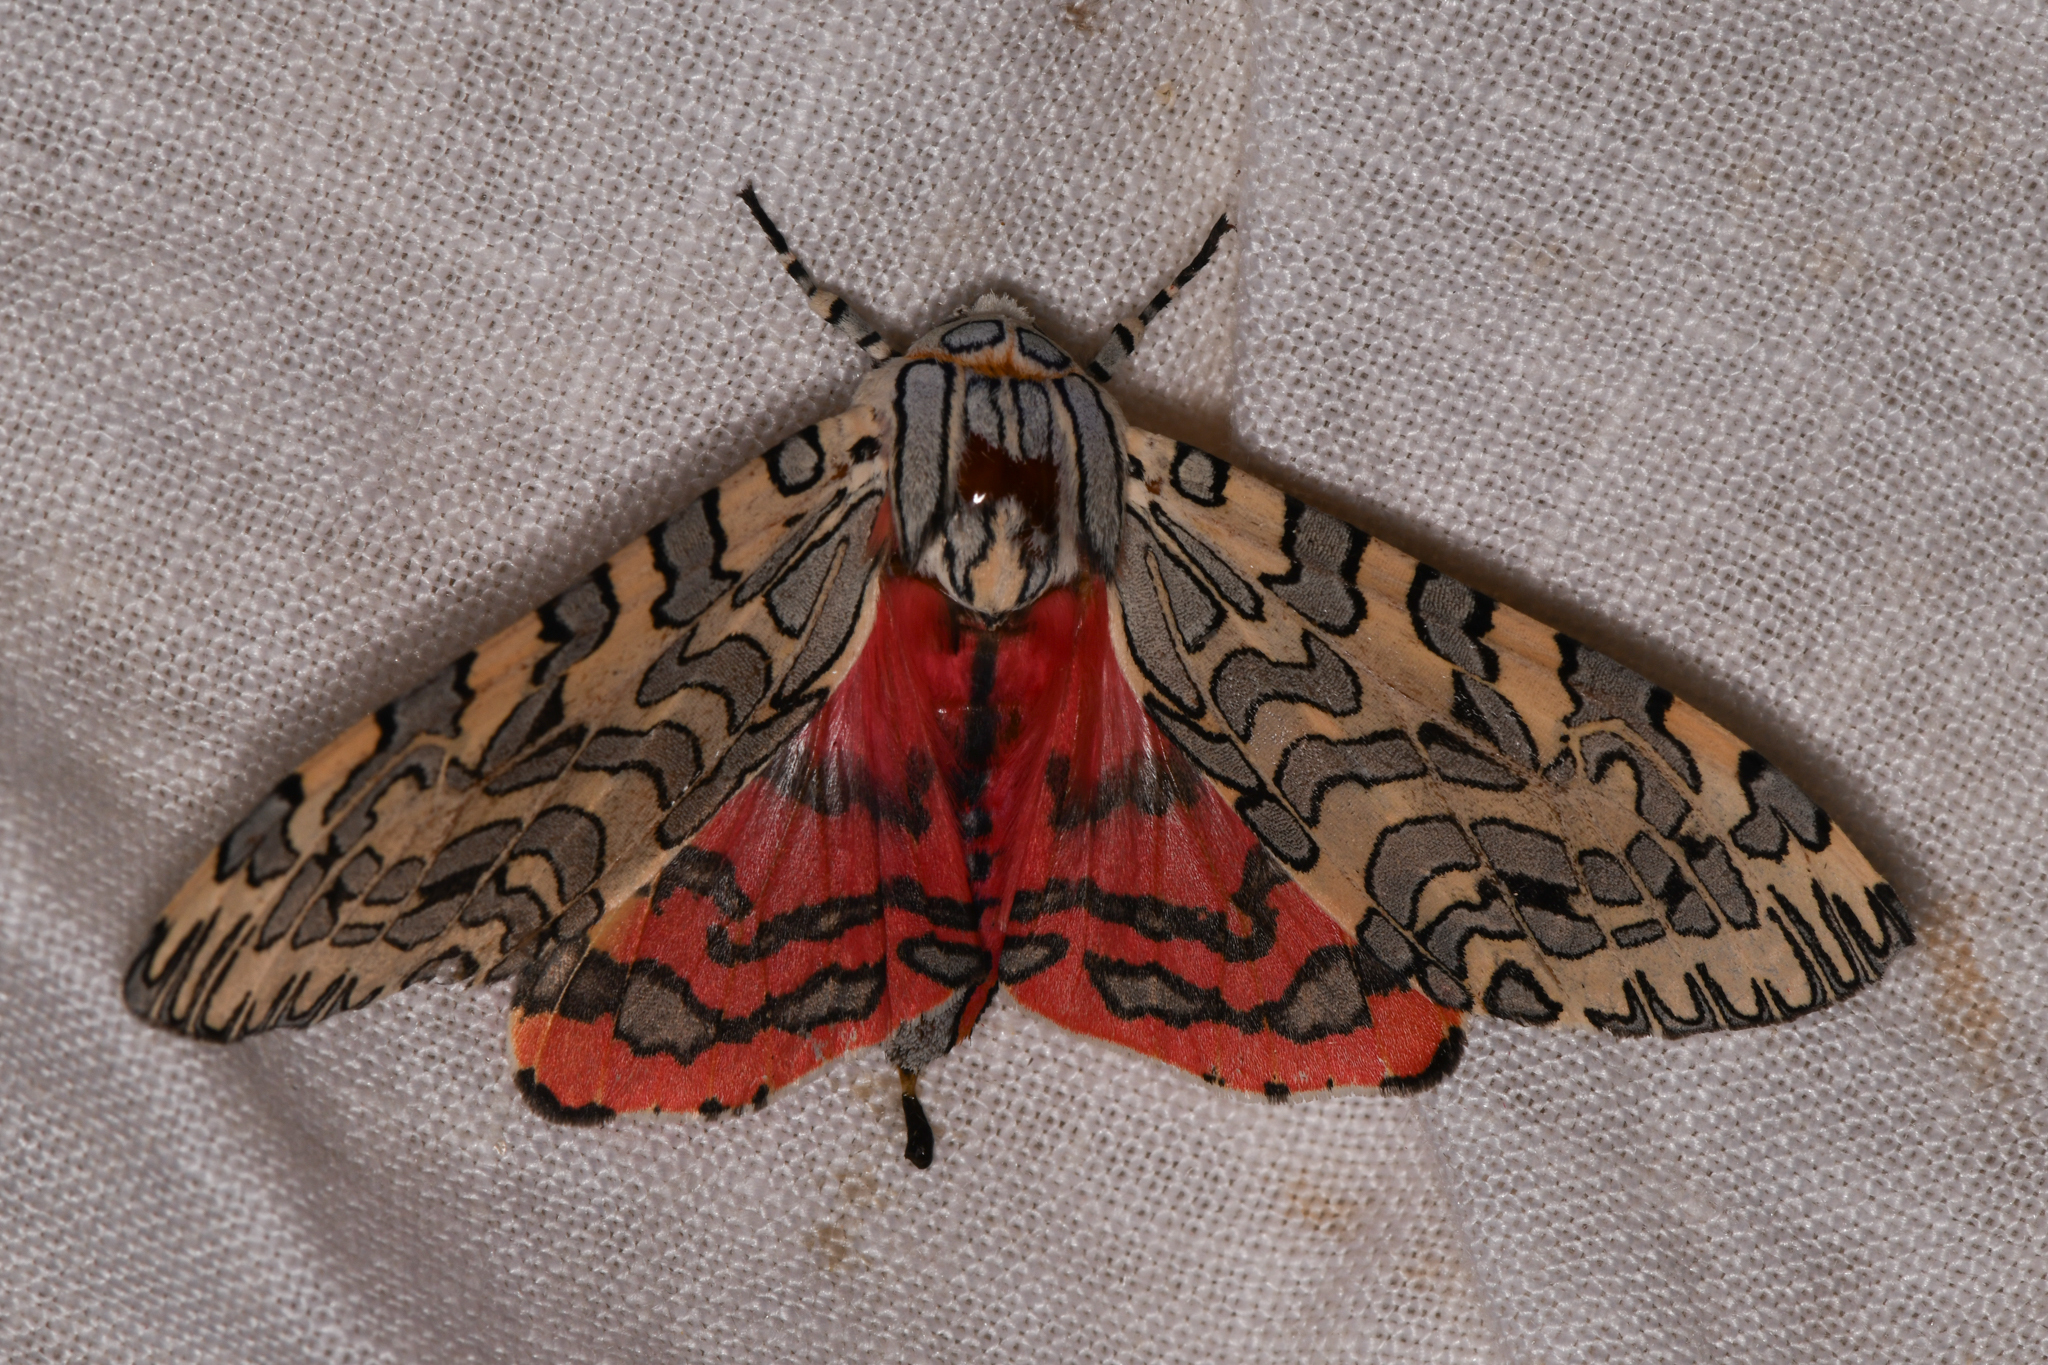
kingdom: Animalia
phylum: Arthropoda
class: Insecta
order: Lepidoptera
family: Erebidae
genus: Arachnis
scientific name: Arachnis picta
